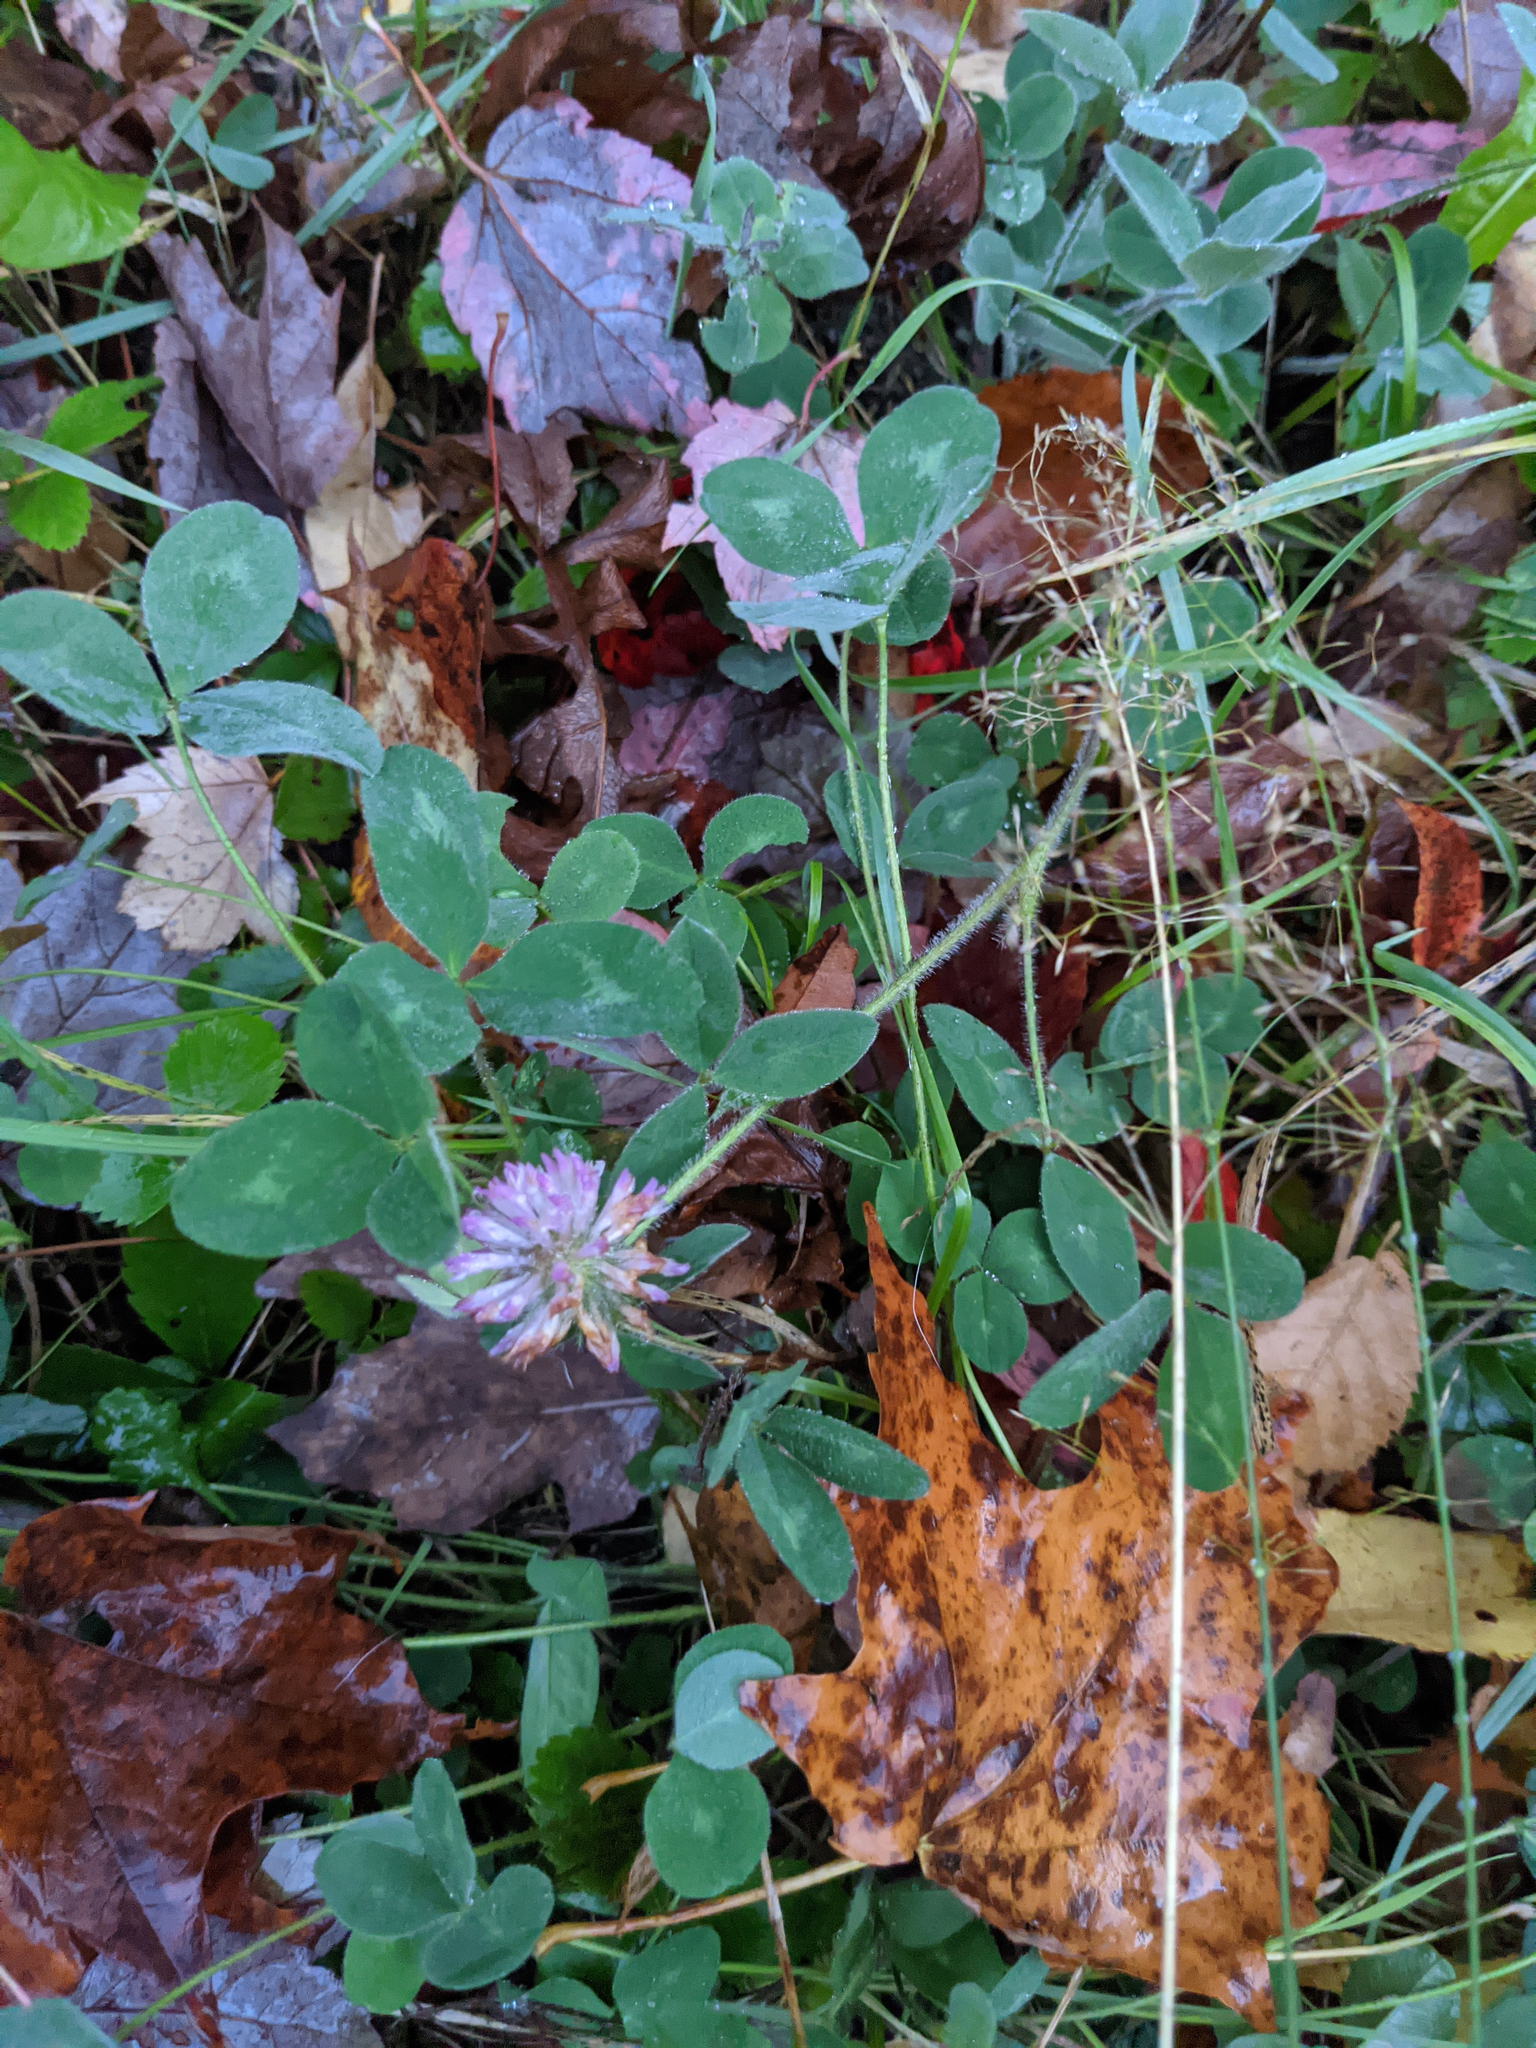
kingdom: Plantae
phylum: Tracheophyta
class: Magnoliopsida
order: Fabales
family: Fabaceae
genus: Trifolium
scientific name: Trifolium pratense
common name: Red clover
